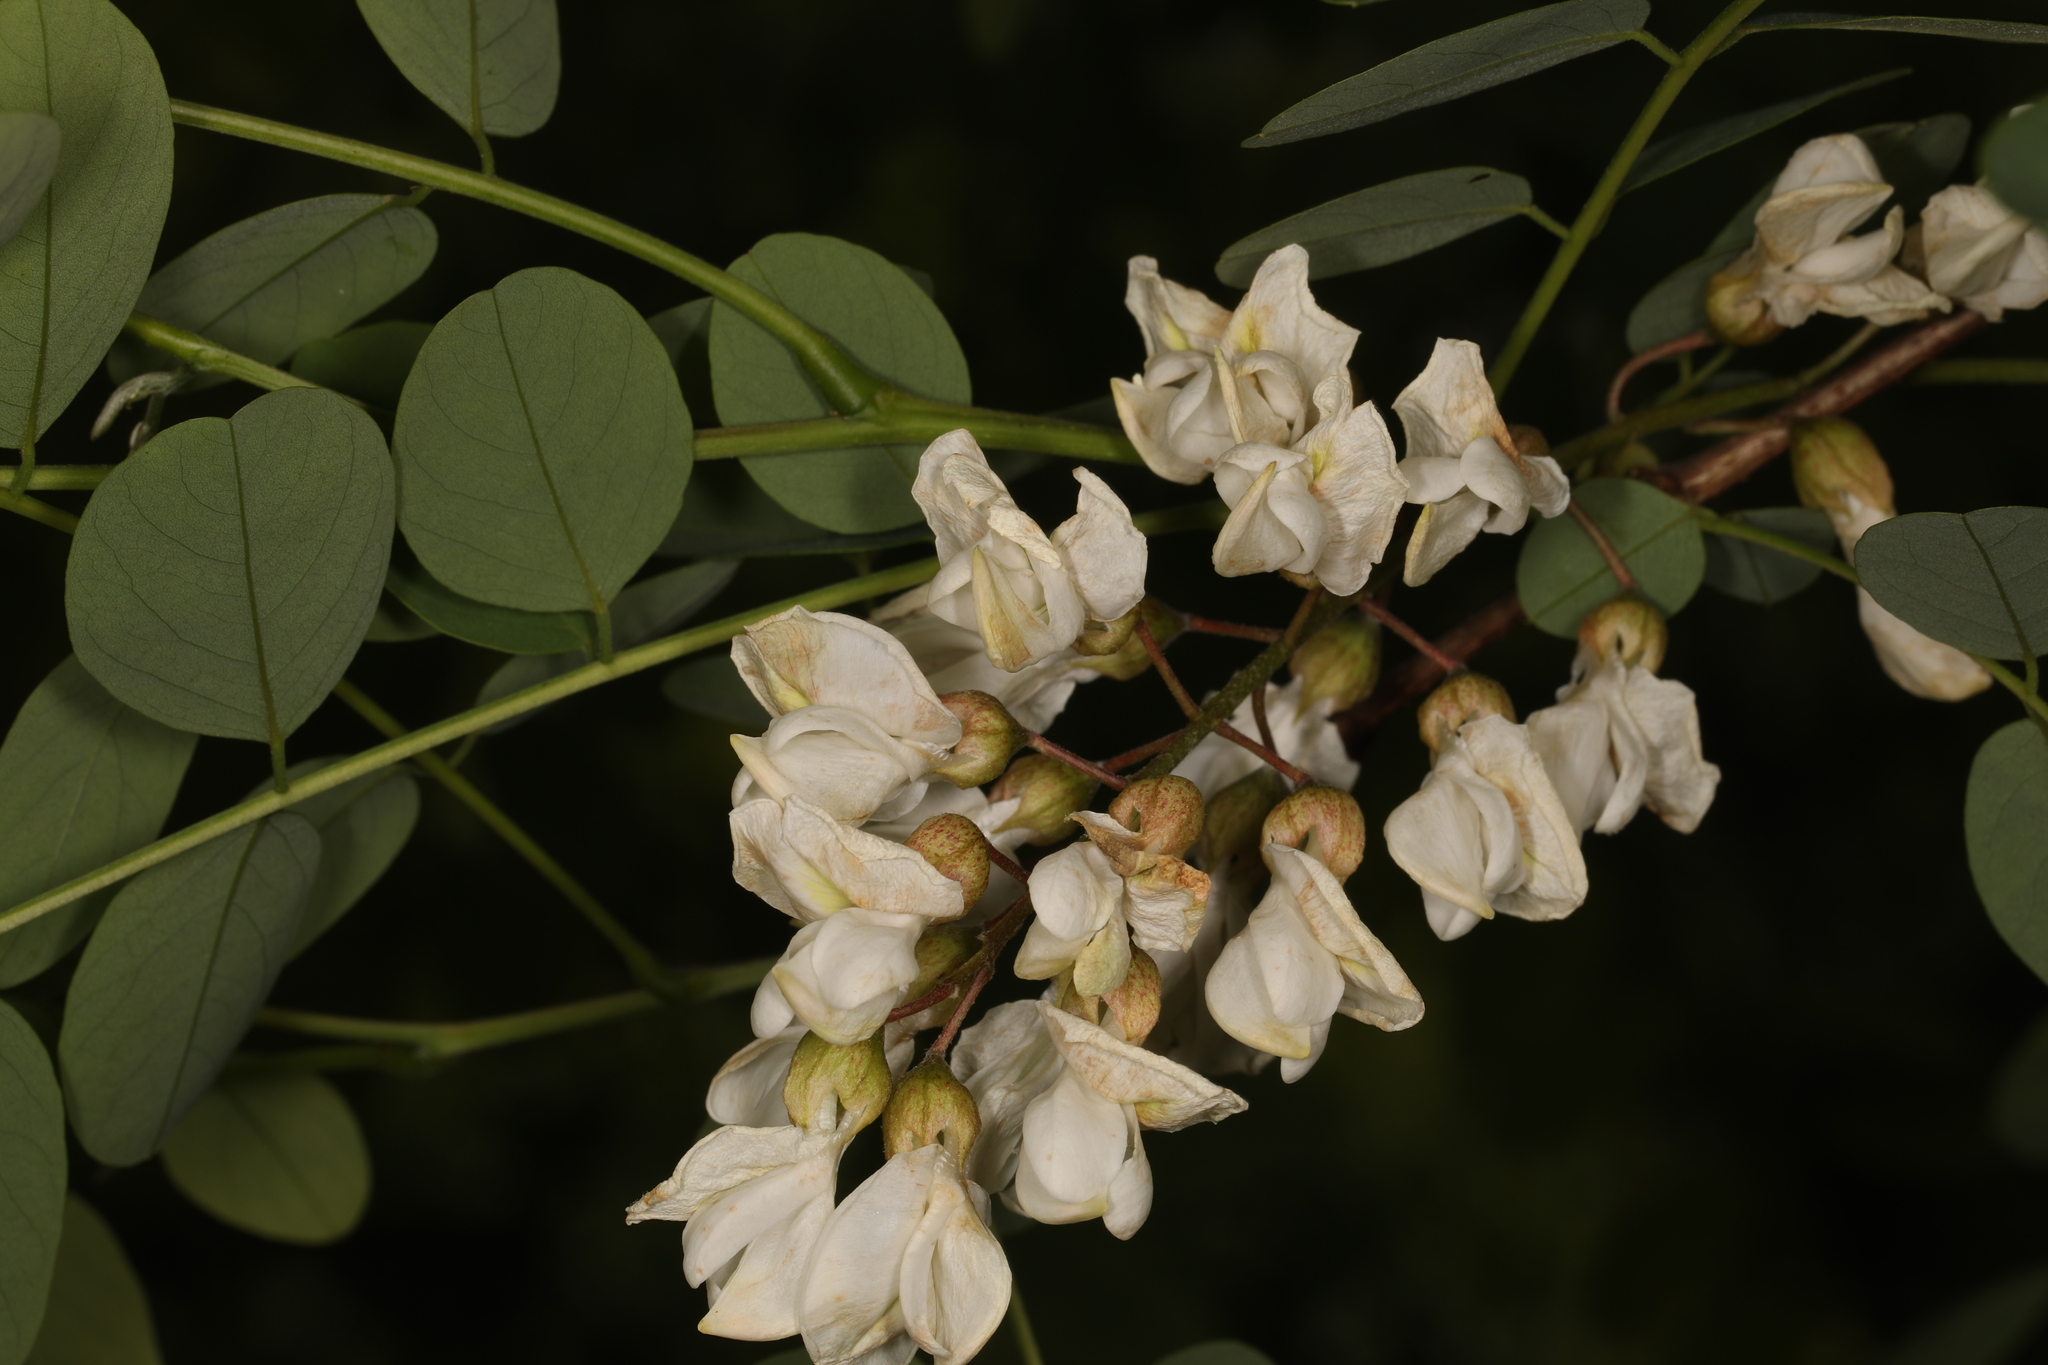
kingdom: Plantae
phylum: Tracheophyta
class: Magnoliopsida
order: Fabales
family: Fabaceae
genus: Robinia
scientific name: Robinia pseudoacacia
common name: Black locust
